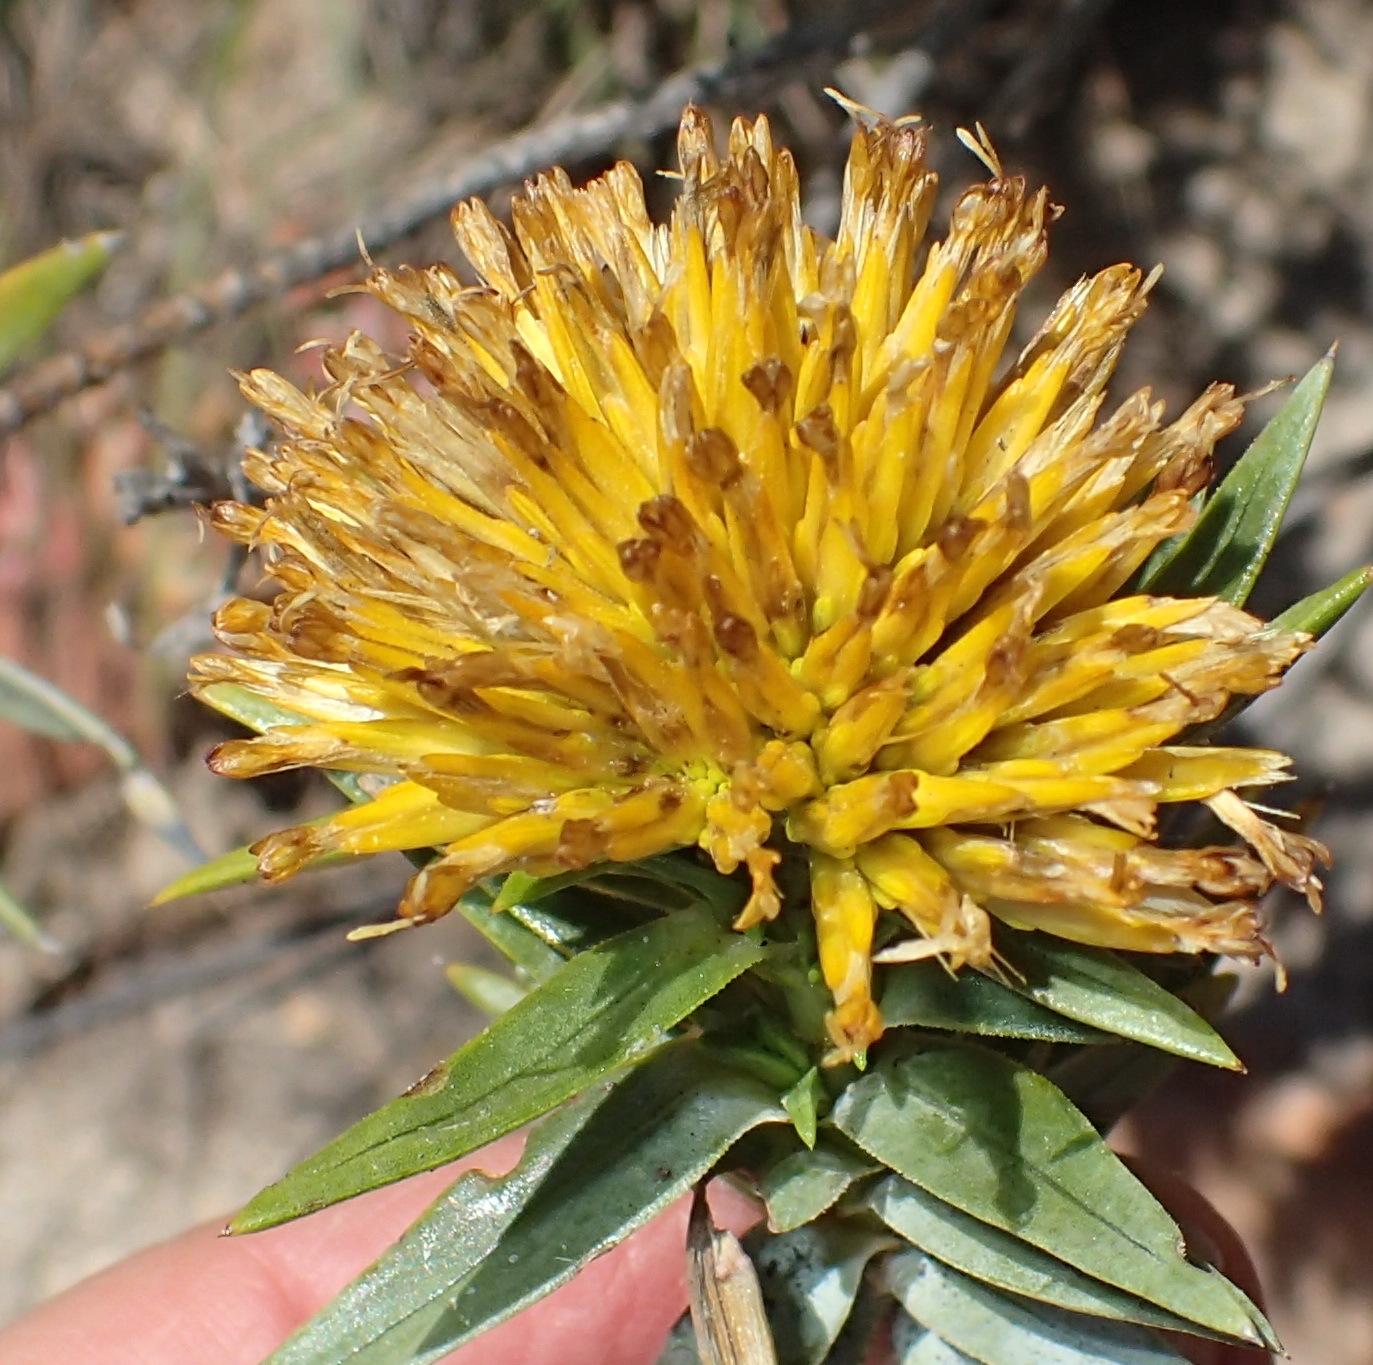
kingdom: Plantae
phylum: Tracheophyta
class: Magnoliopsida
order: Asterales
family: Asteraceae
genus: Pteronia
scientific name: Pteronia fasciculata
